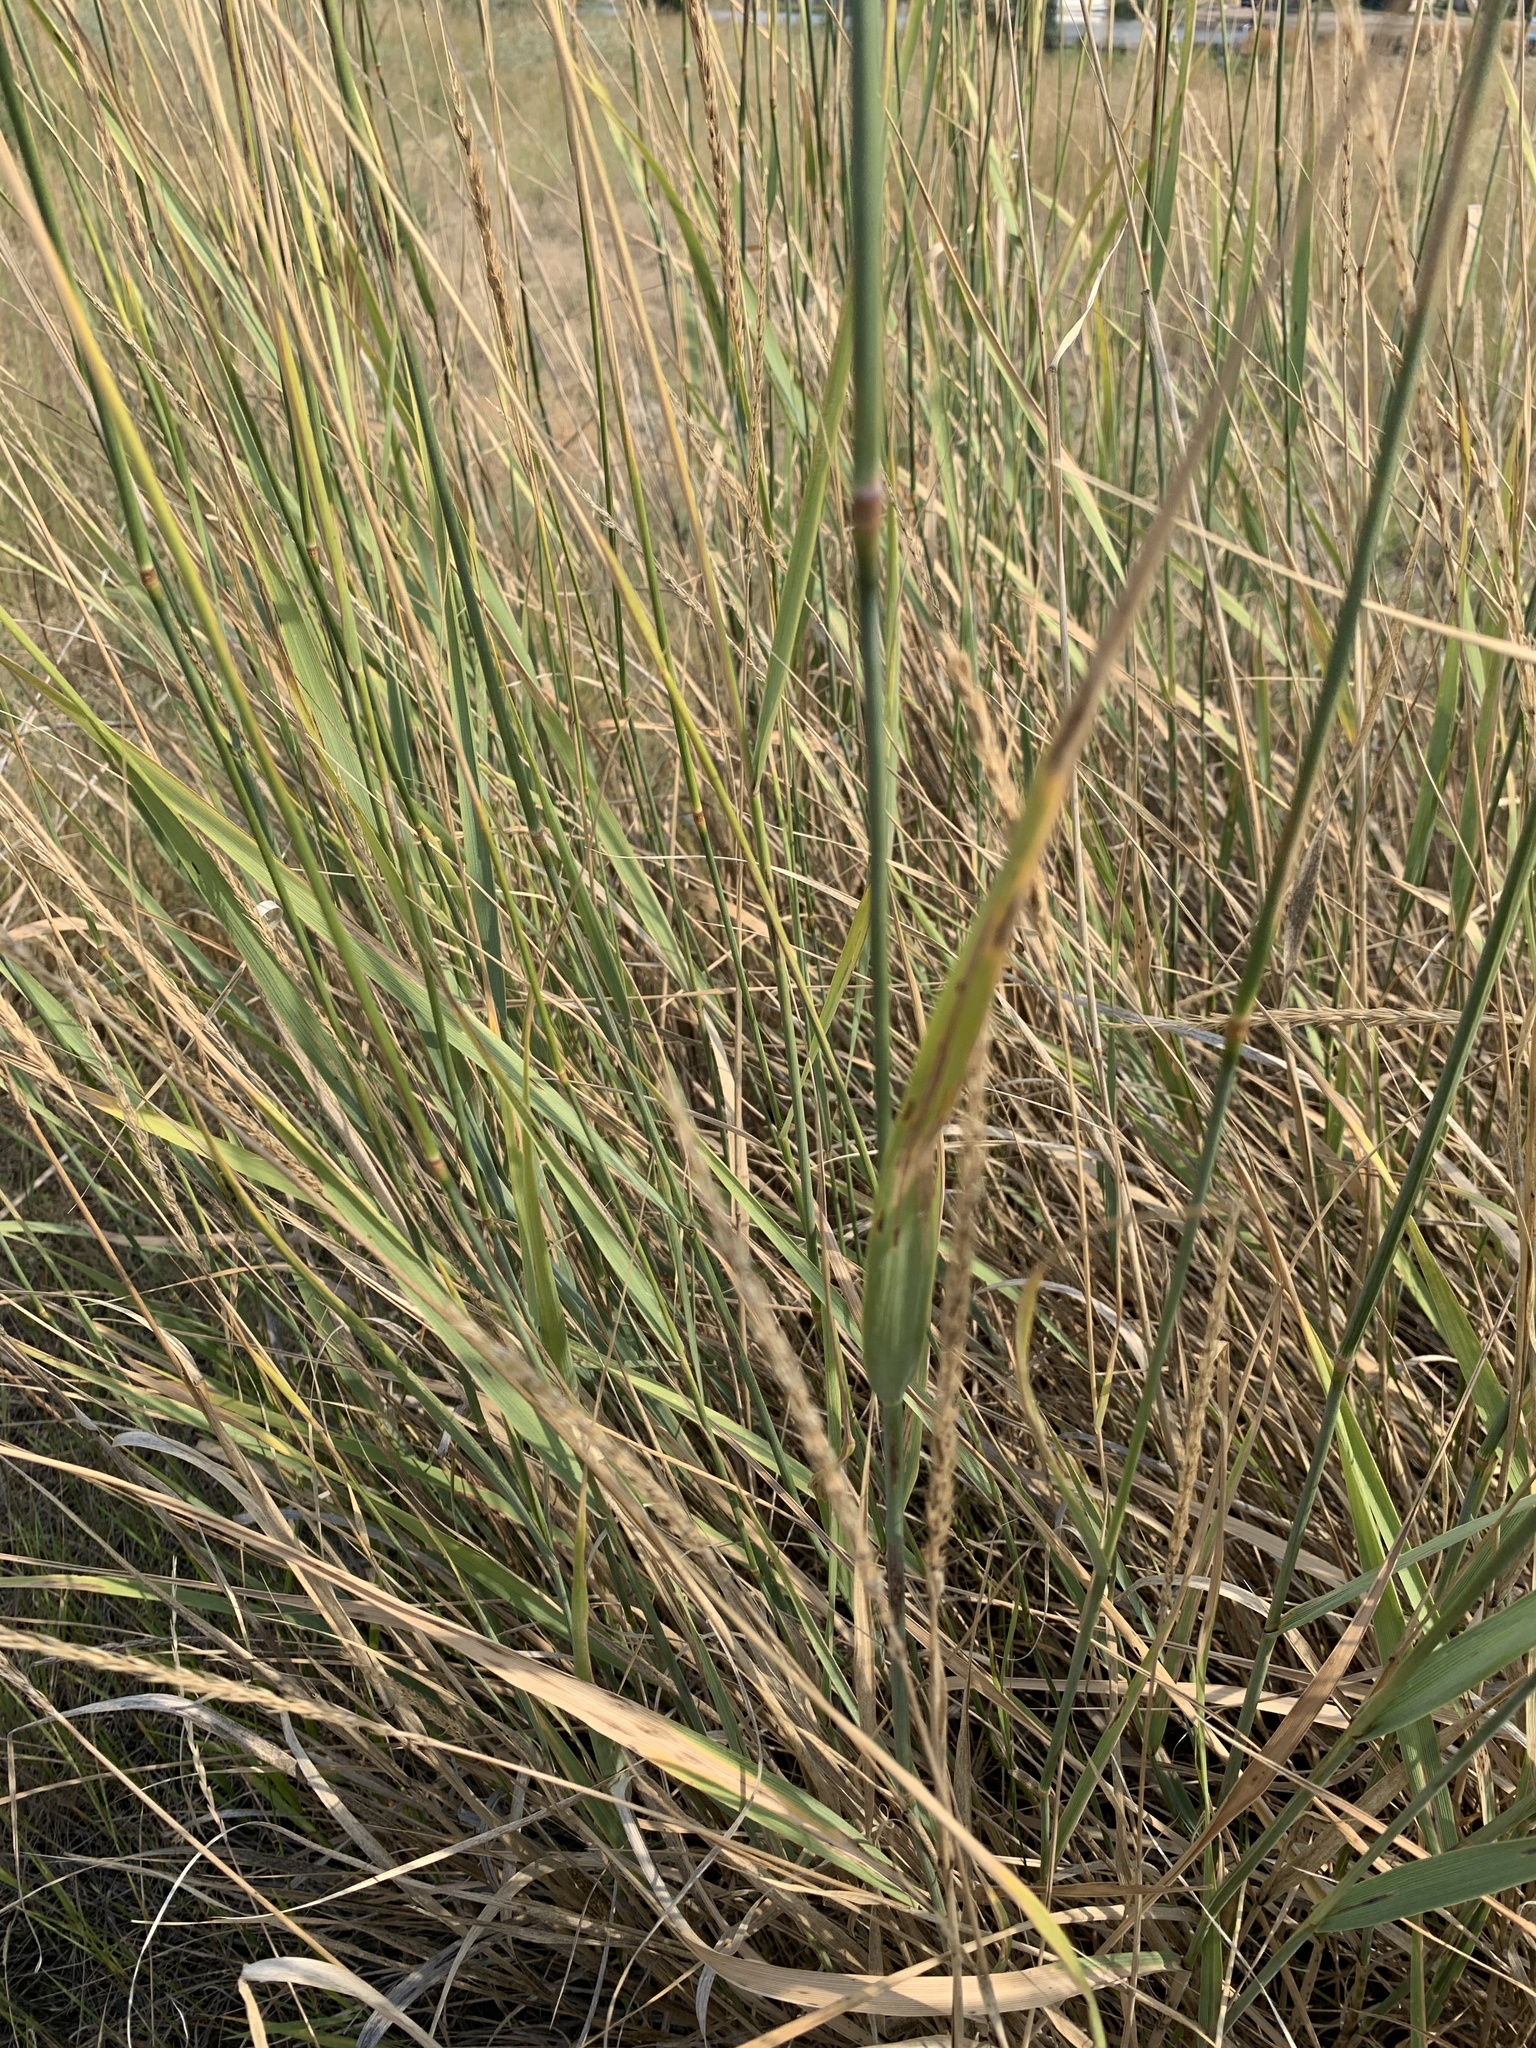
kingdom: Plantae
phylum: Tracheophyta
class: Liliopsida
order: Poales
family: Poaceae
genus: Leymus
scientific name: Leymus cinereus
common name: Basin wild rye
